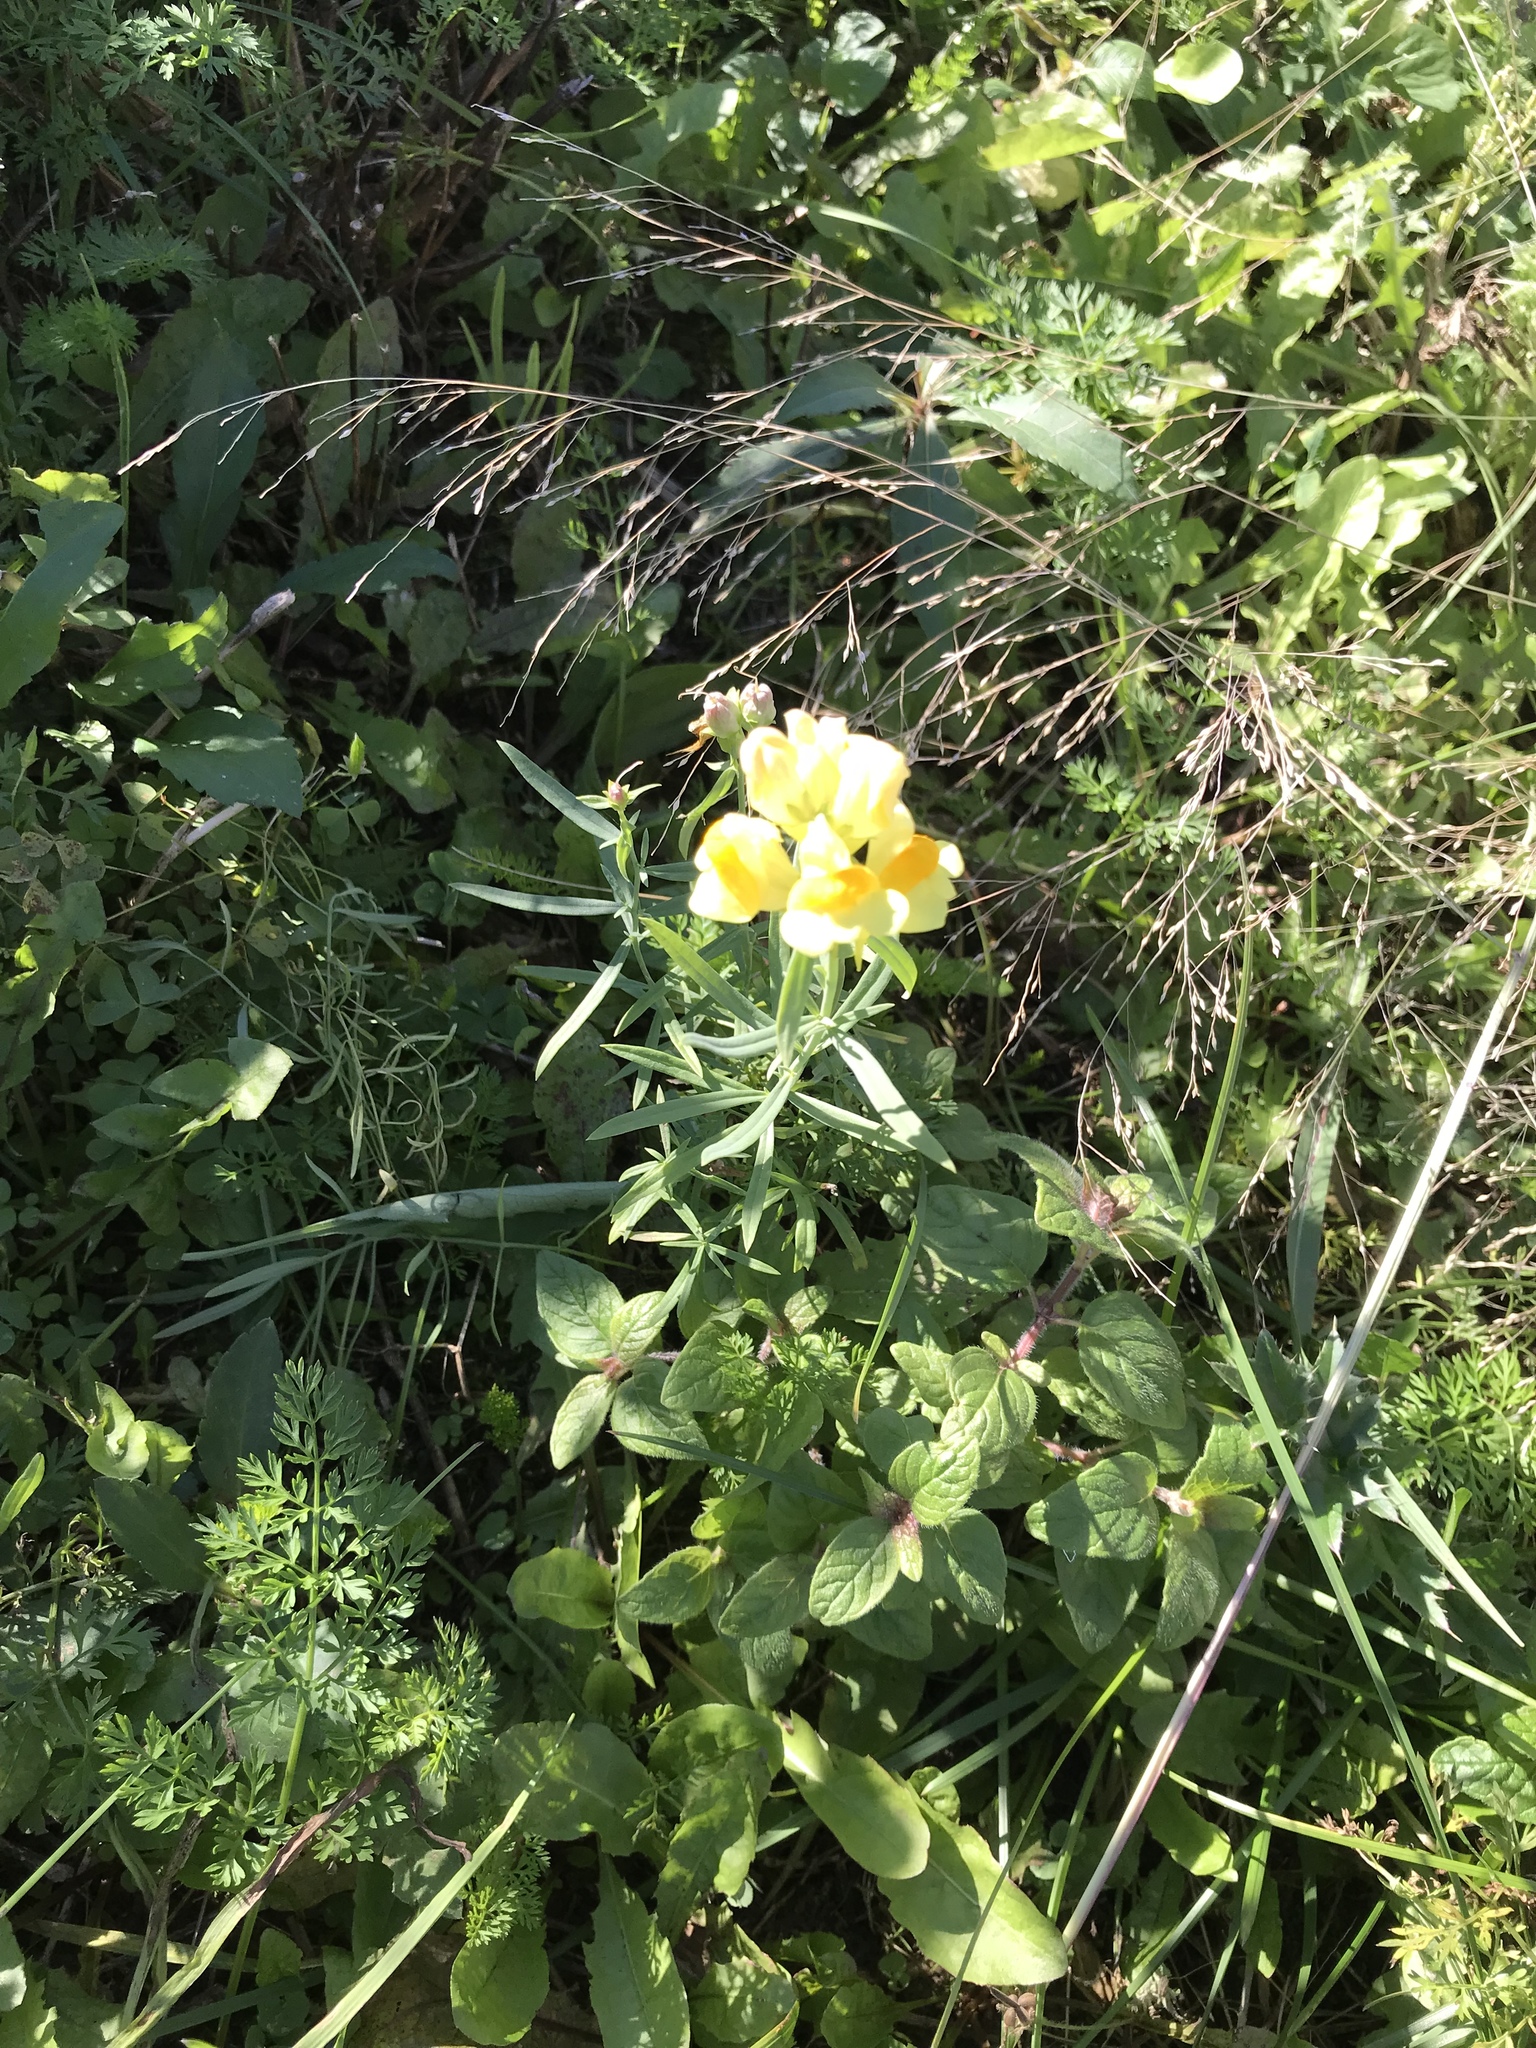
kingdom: Plantae
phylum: Tracheophyta
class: Magnoliopsida
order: Lamiales
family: Plantaginaceae
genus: Linaria
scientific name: Linaria vulgaris
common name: Butter and eggs
